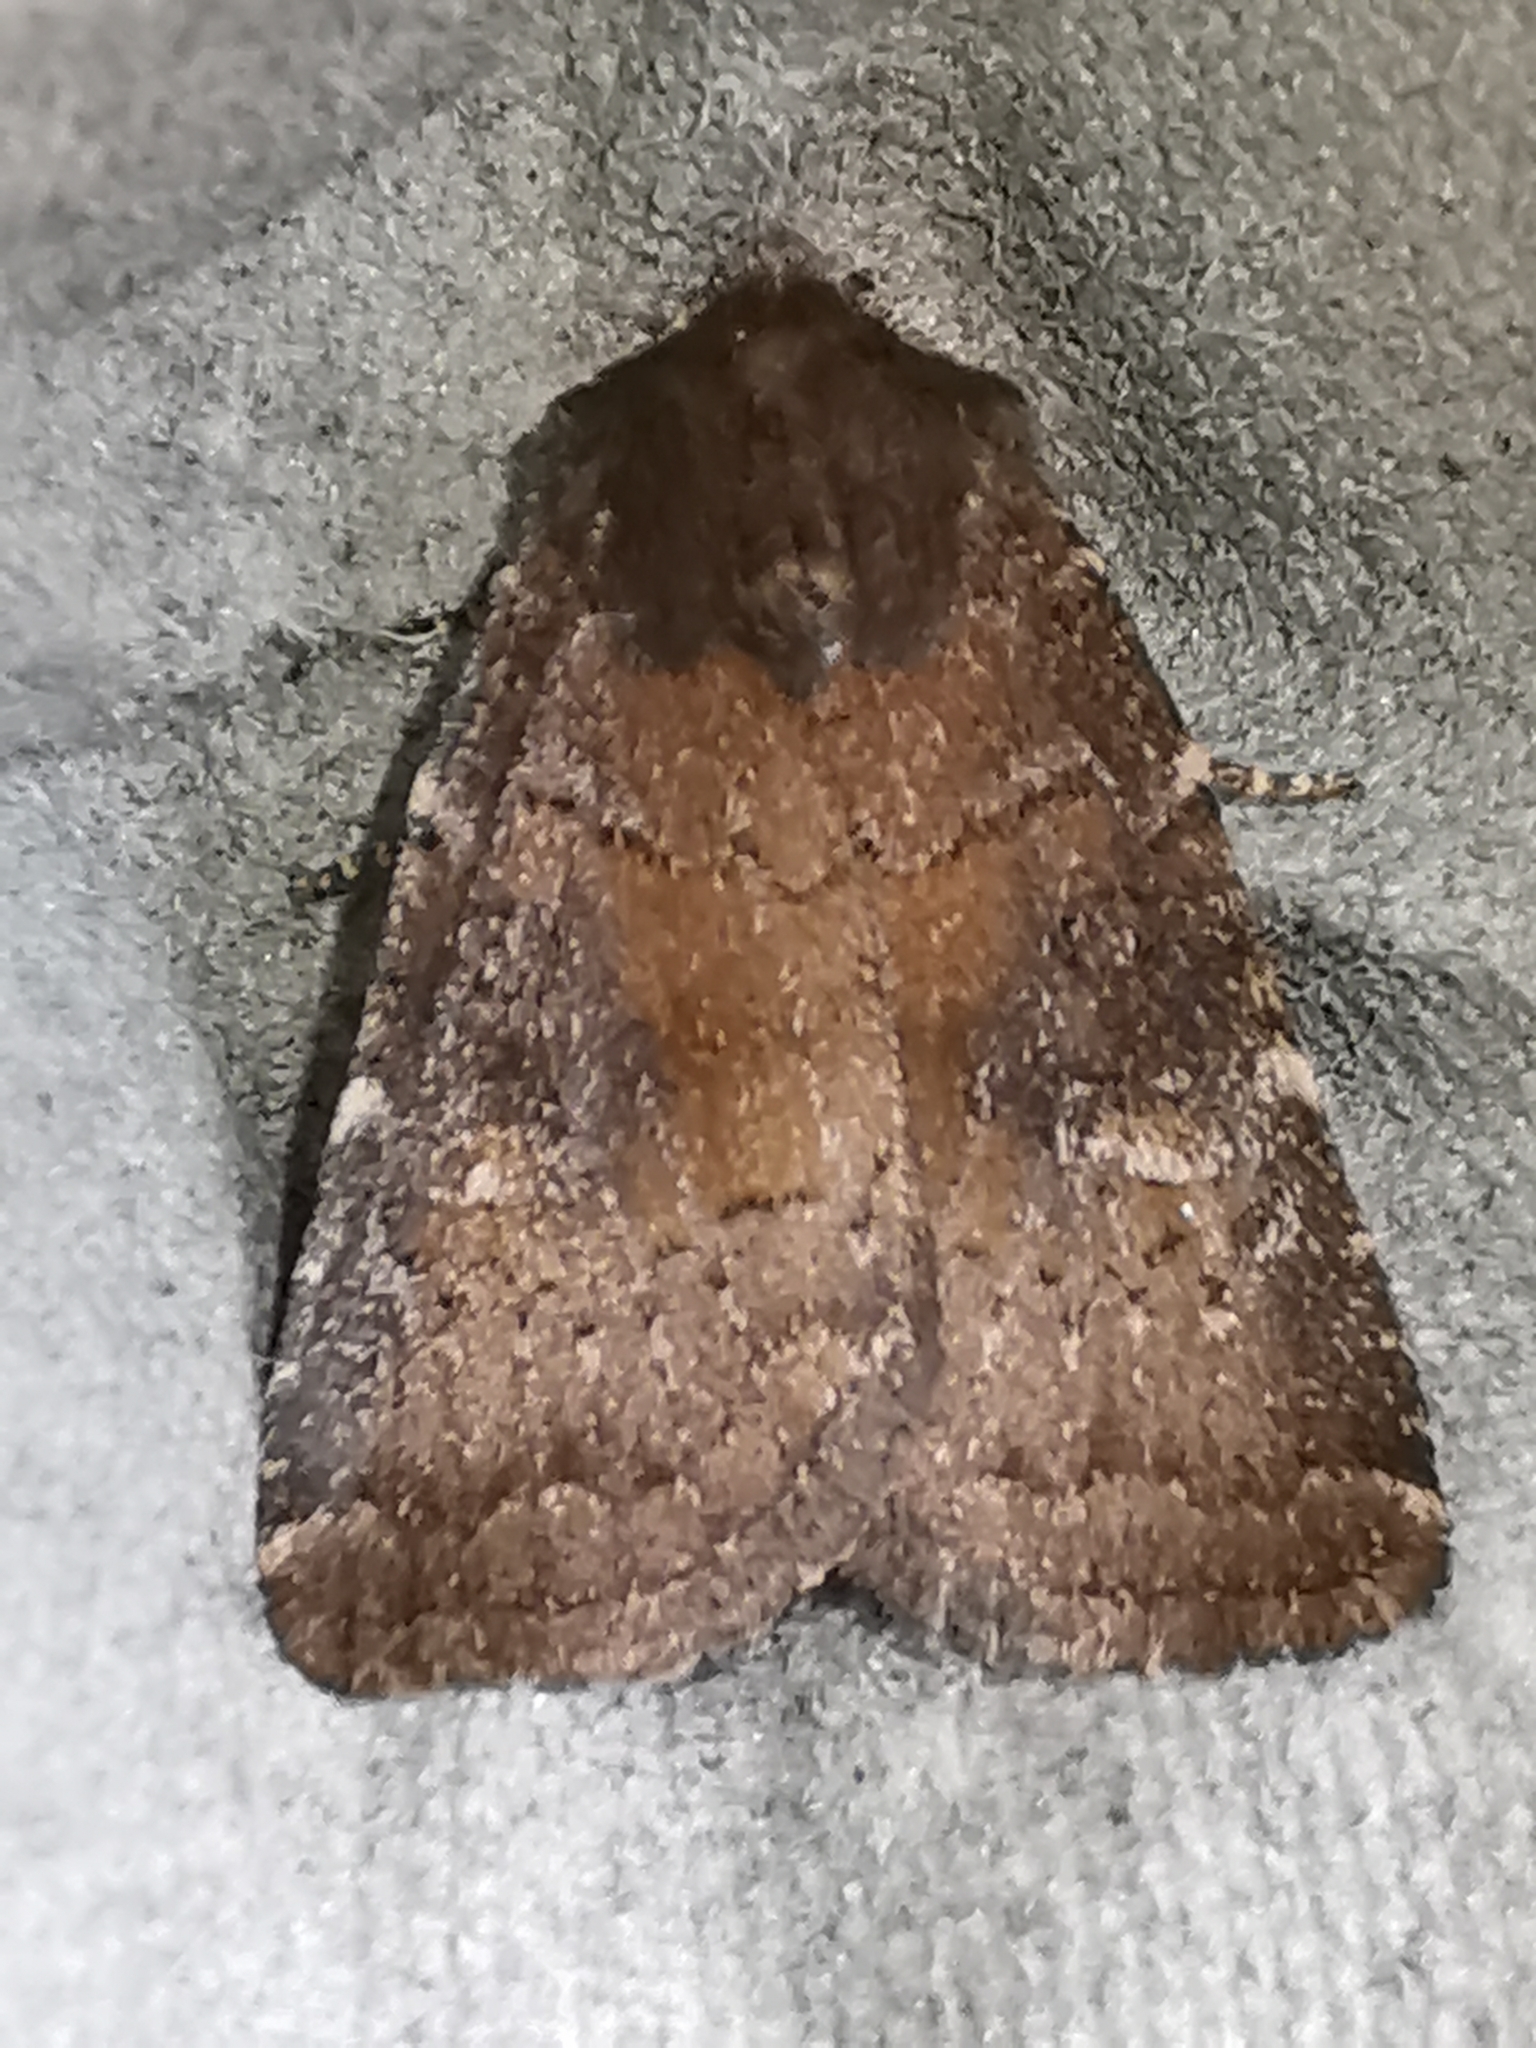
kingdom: Animalia
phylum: Arthropoda
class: Insecta
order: Lepidoptera
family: Noctuidae
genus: Charanyca
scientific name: Charanyca ferruginea
